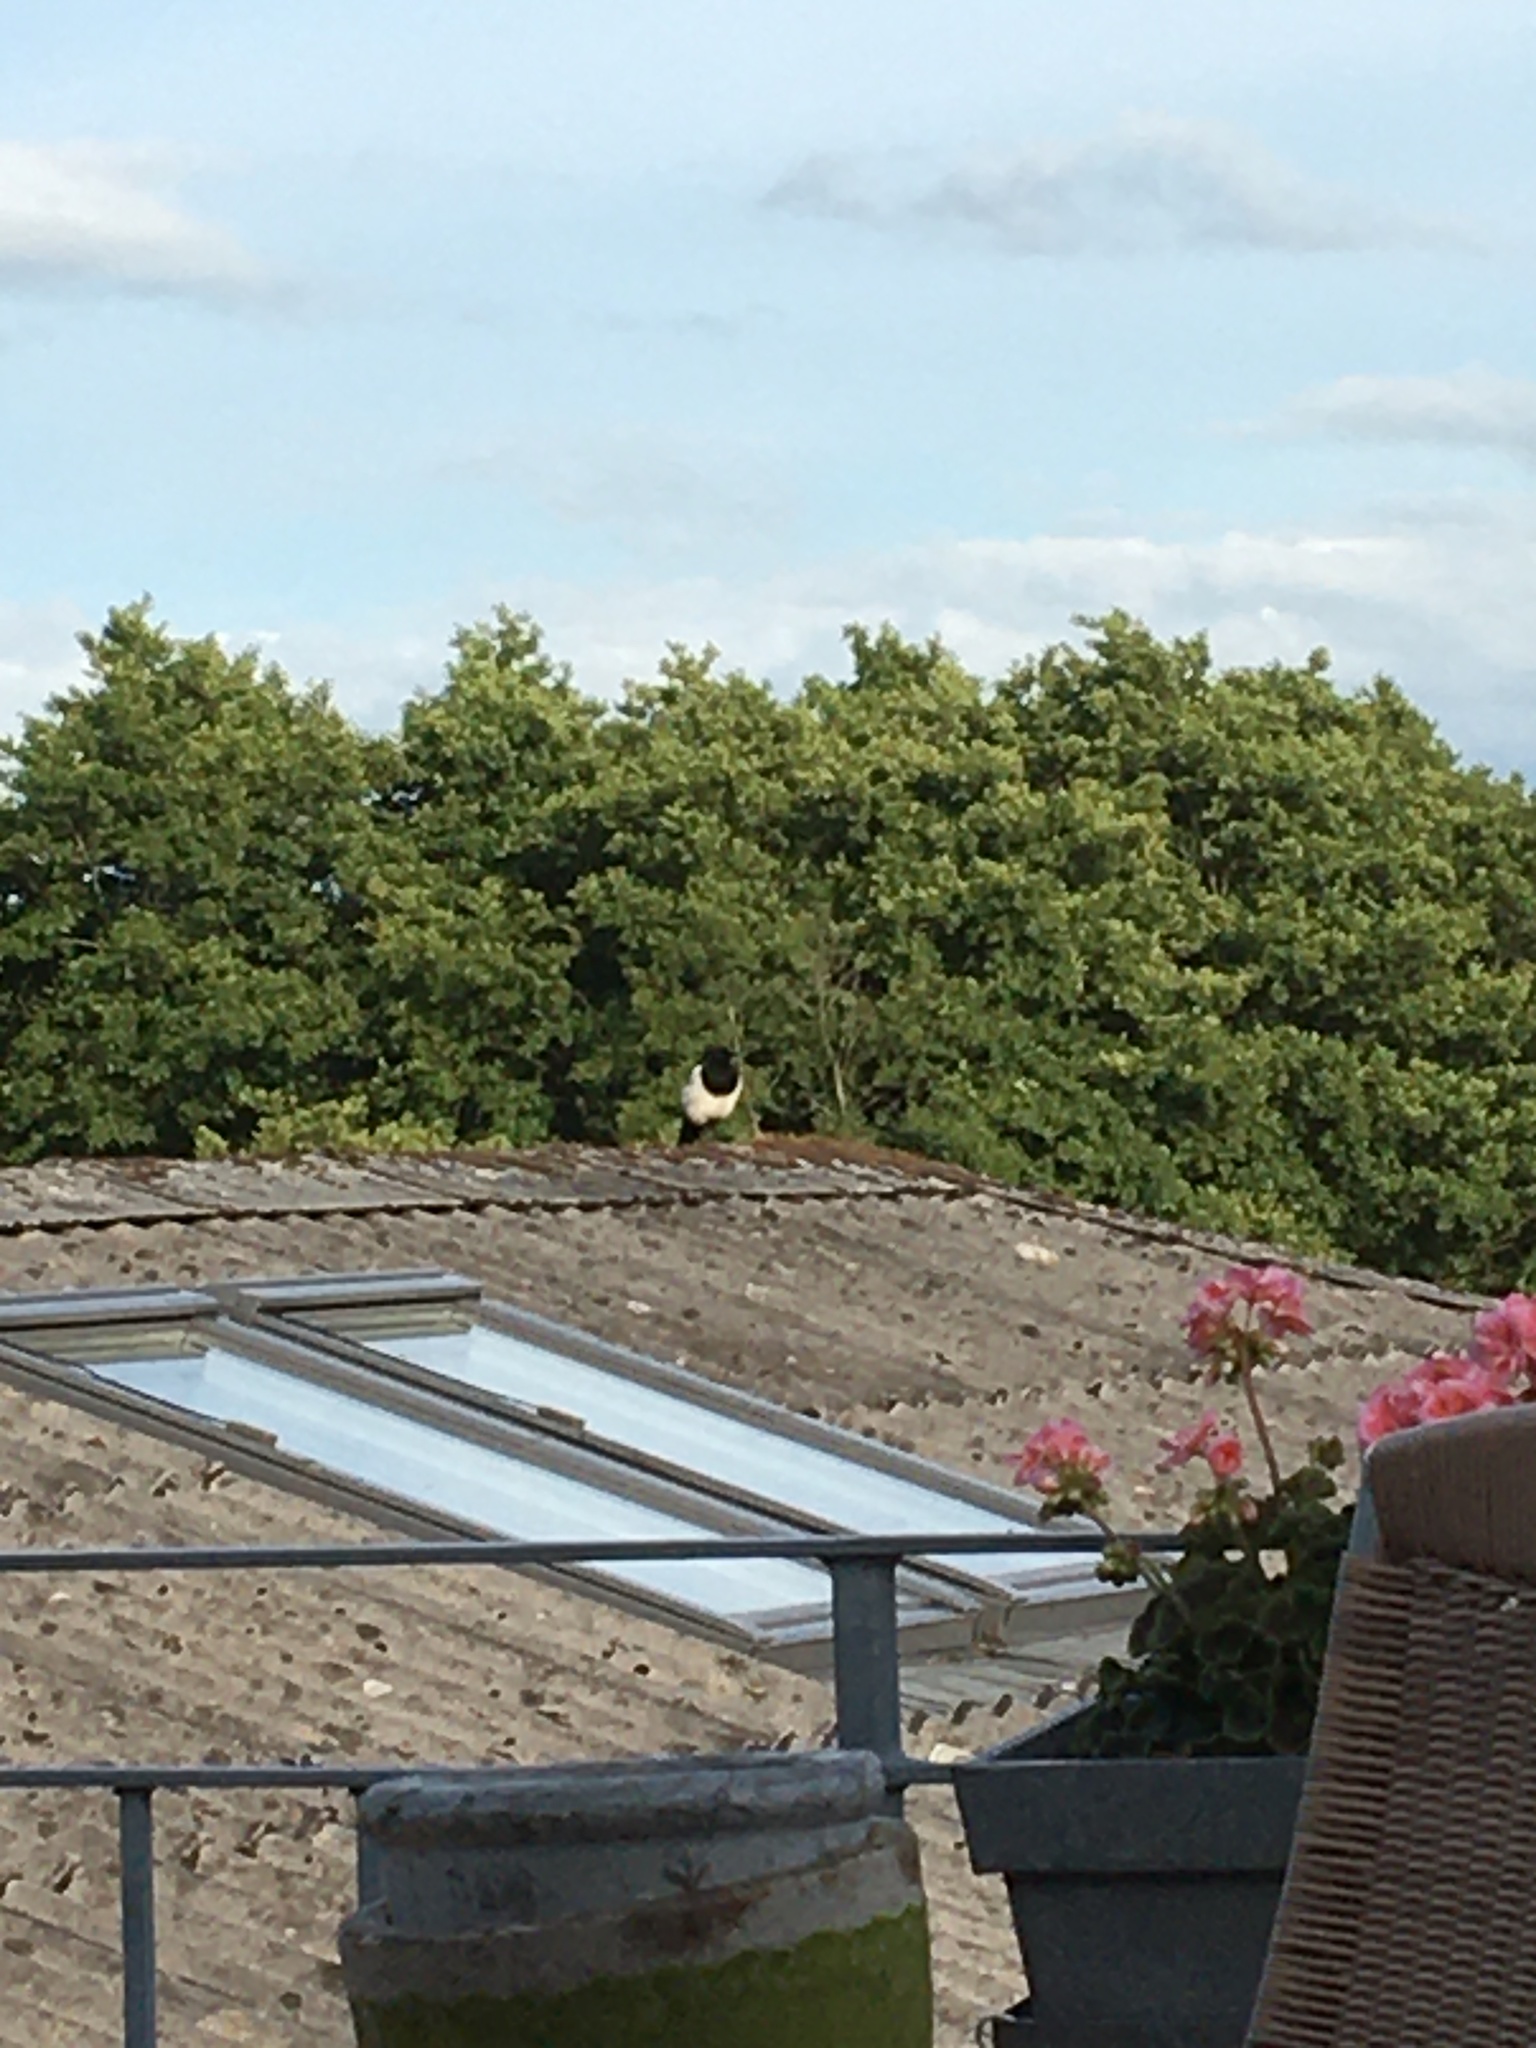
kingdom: Animalia
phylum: Chordata
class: Aves
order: Passeriformes
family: Corvidae
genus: Pica
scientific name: Pica pica
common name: Eurasian magpie
